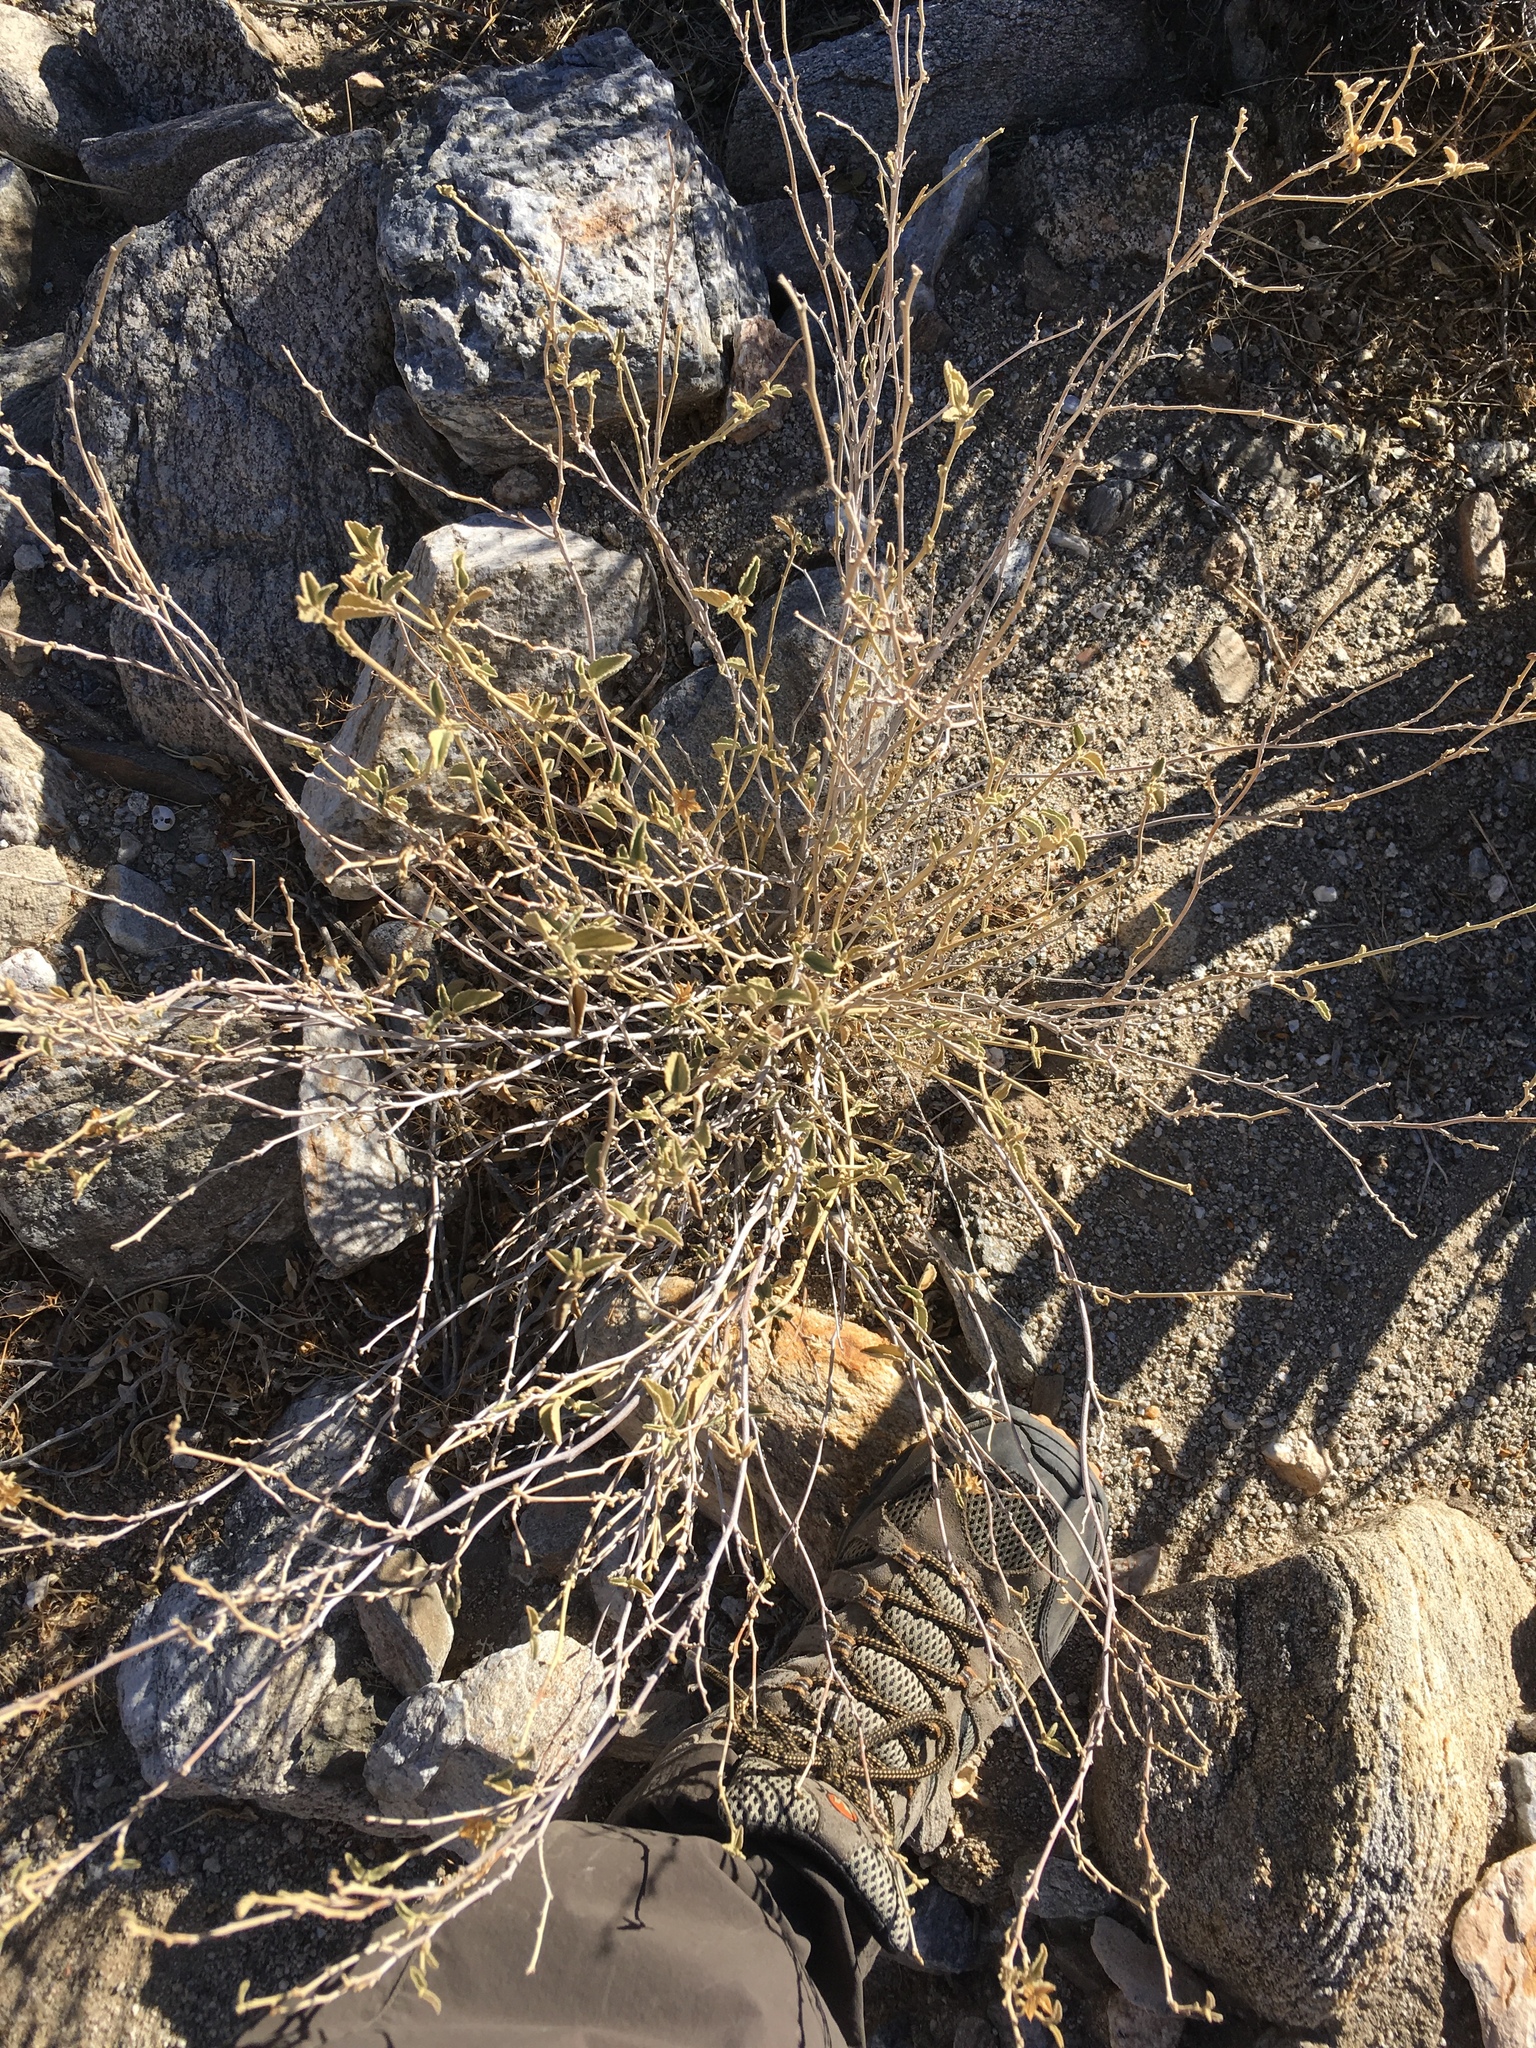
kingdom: Plantae
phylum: Tracheophyta
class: Magnoliopsida
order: Malvales
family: Malvaceae
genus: Hibiscus
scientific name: Hibiscus denudatus
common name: Paleface
